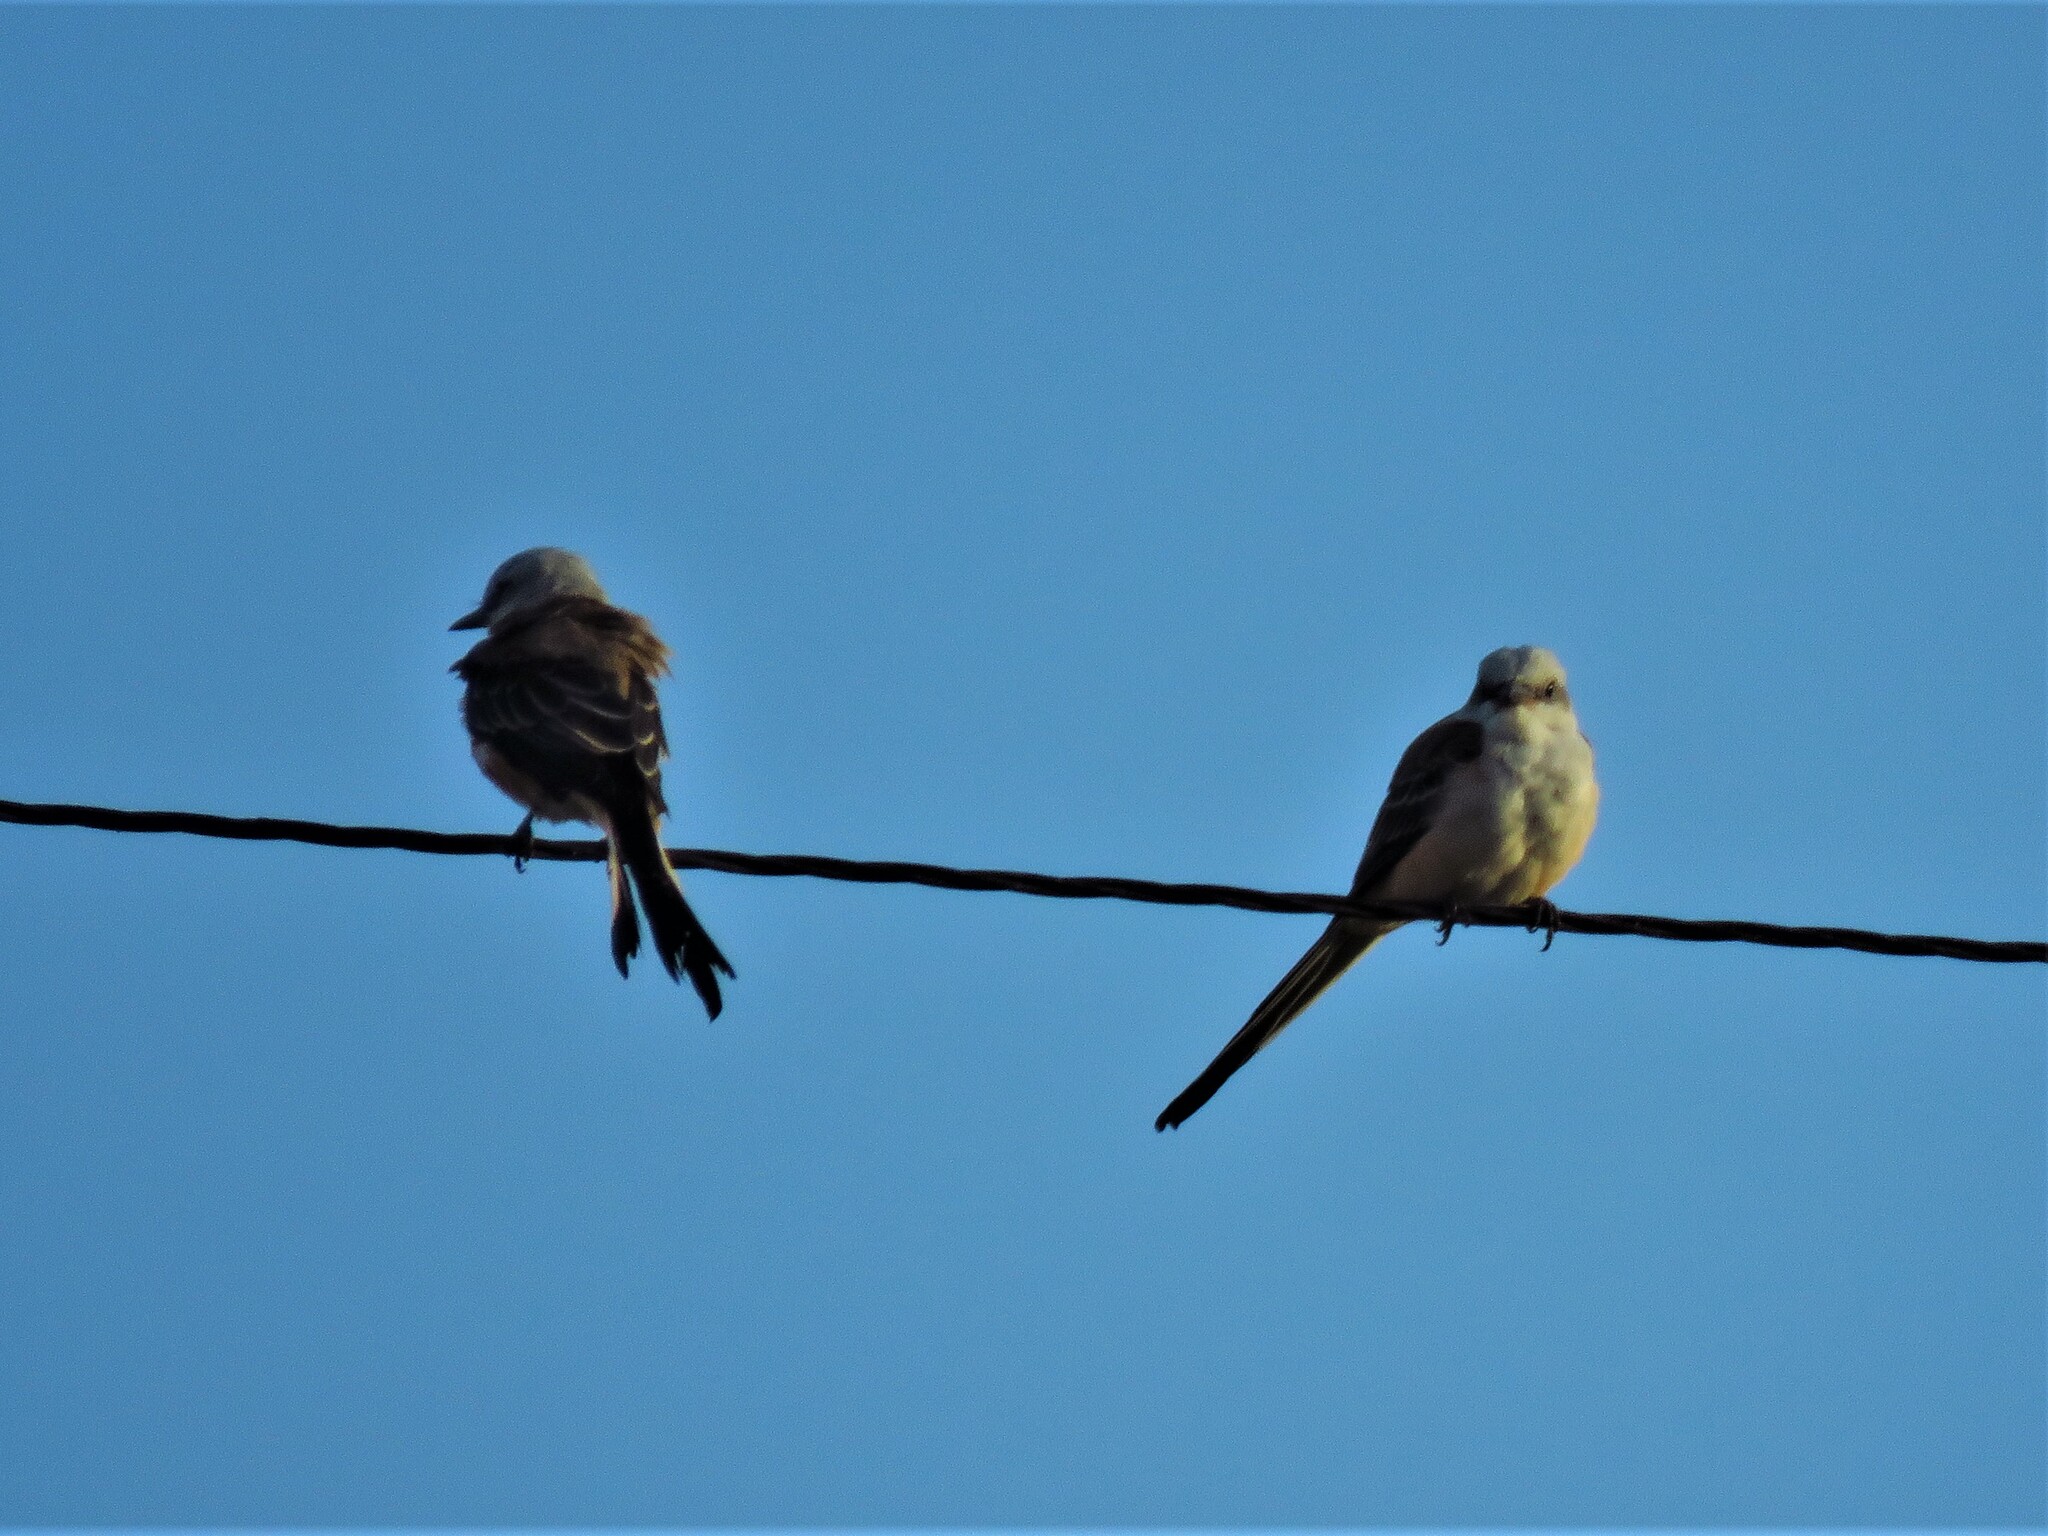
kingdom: Animalia
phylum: Chordata
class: Aves
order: Passeriformes
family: Tyrannidae
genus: Tyrannus
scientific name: Tyrannus forficatus
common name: Scissor-tailed flycatcher
